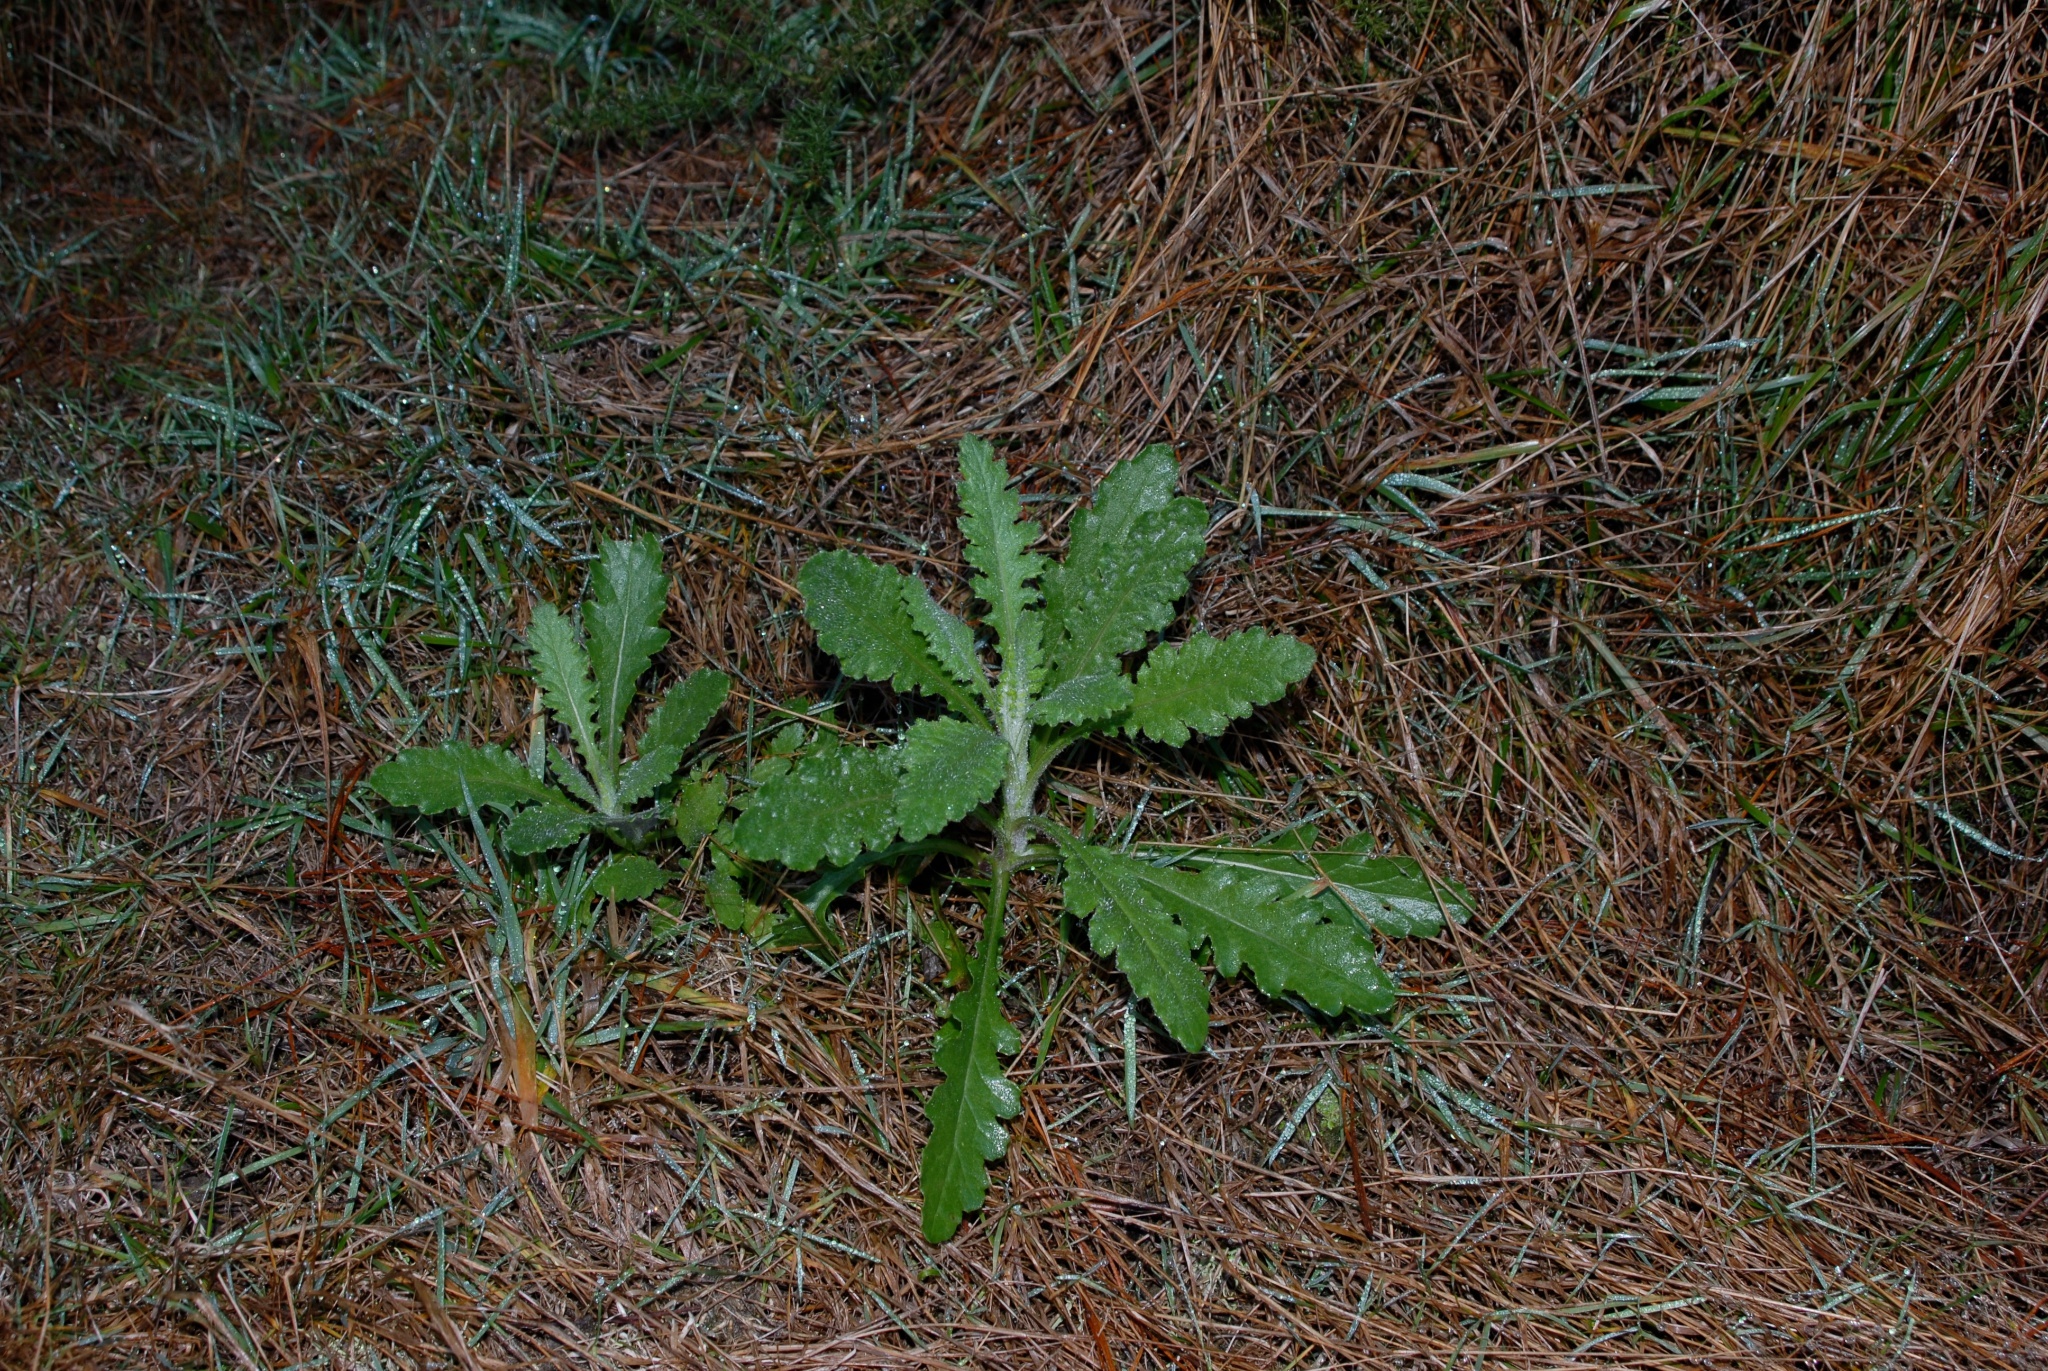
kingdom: Plantae
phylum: Tracheophyta
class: Magnoliopsida
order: Asterales
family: Asteraceae
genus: Senecio
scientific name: Senecio glomeratus
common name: Cutleaf burnweed
